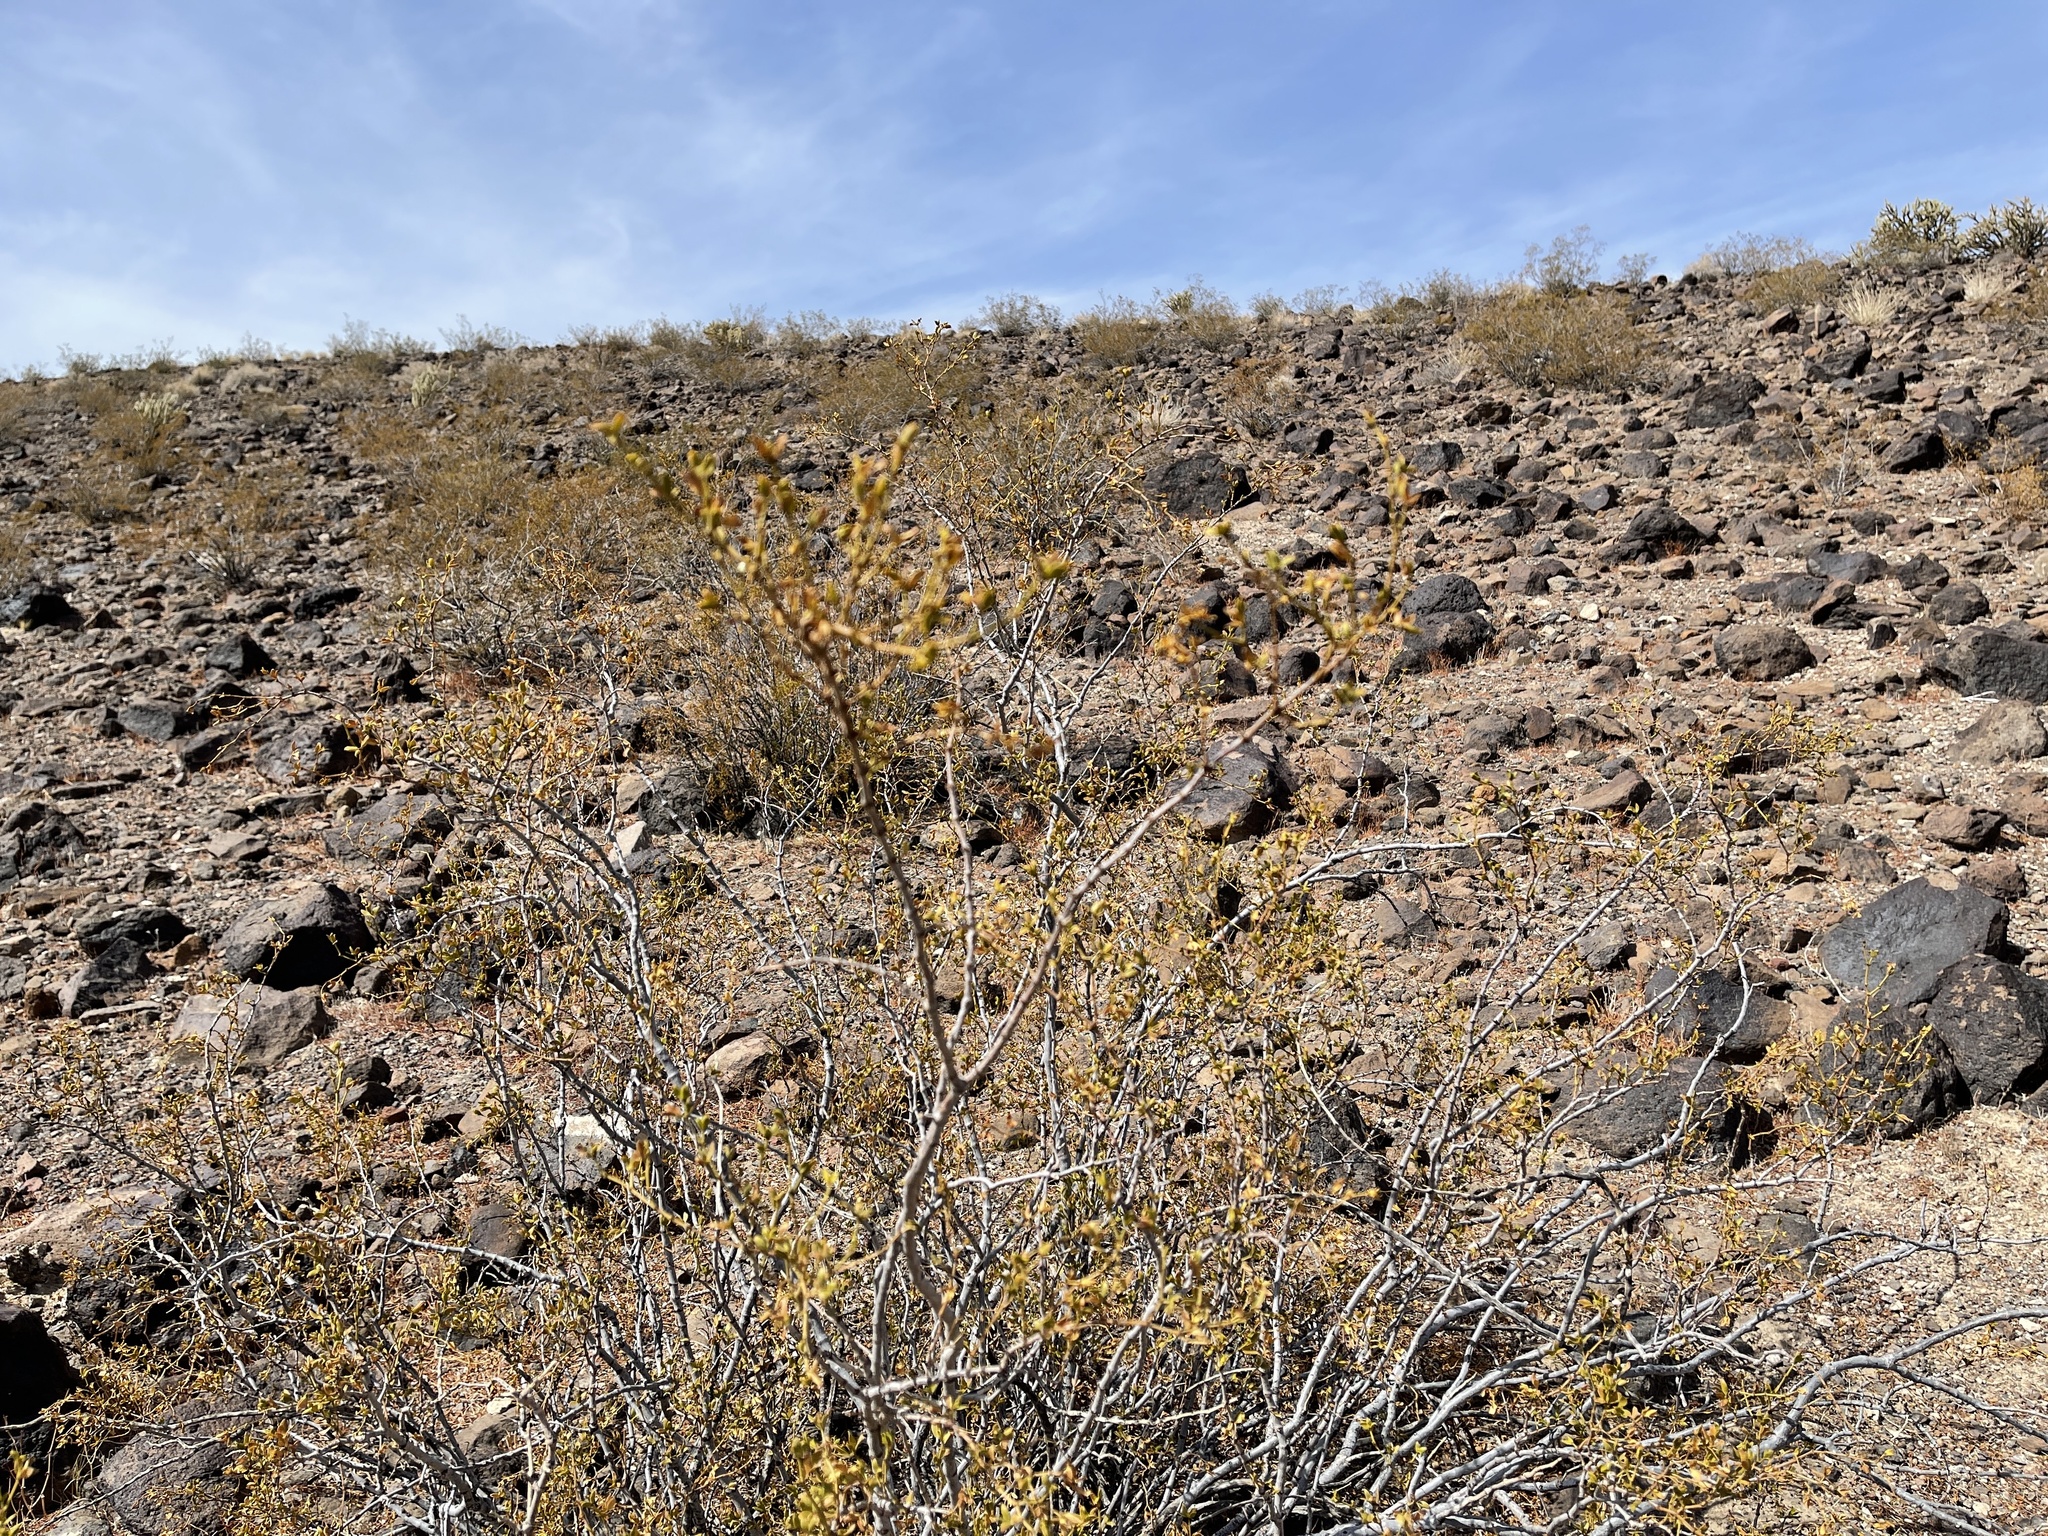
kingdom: Plantae
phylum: Tracheophyta
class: Magnoliopsida
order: Zygophyllales
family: Zygophyllaceae
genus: Larrea
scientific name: Larrea tridentata
